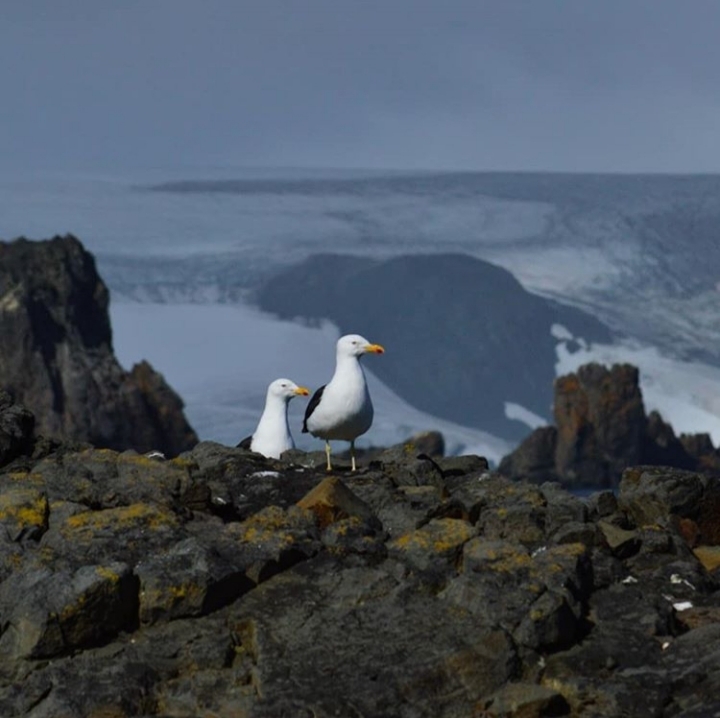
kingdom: Animalia
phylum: Chordata
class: Aves
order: Charadriiformes
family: Laridae
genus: Larus
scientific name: Larus dominicanus
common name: Kelp gull
